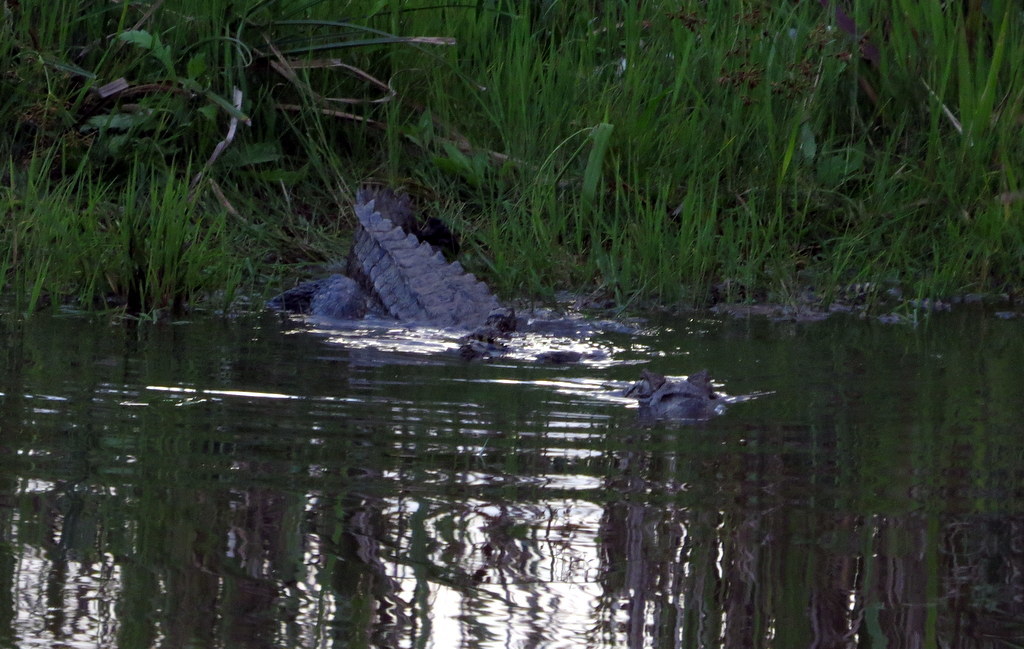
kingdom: Animalia
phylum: Chordata
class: Crocodylia
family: Alligatoridae
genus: Caiman
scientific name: Caiman yacare
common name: Yacare caiman
